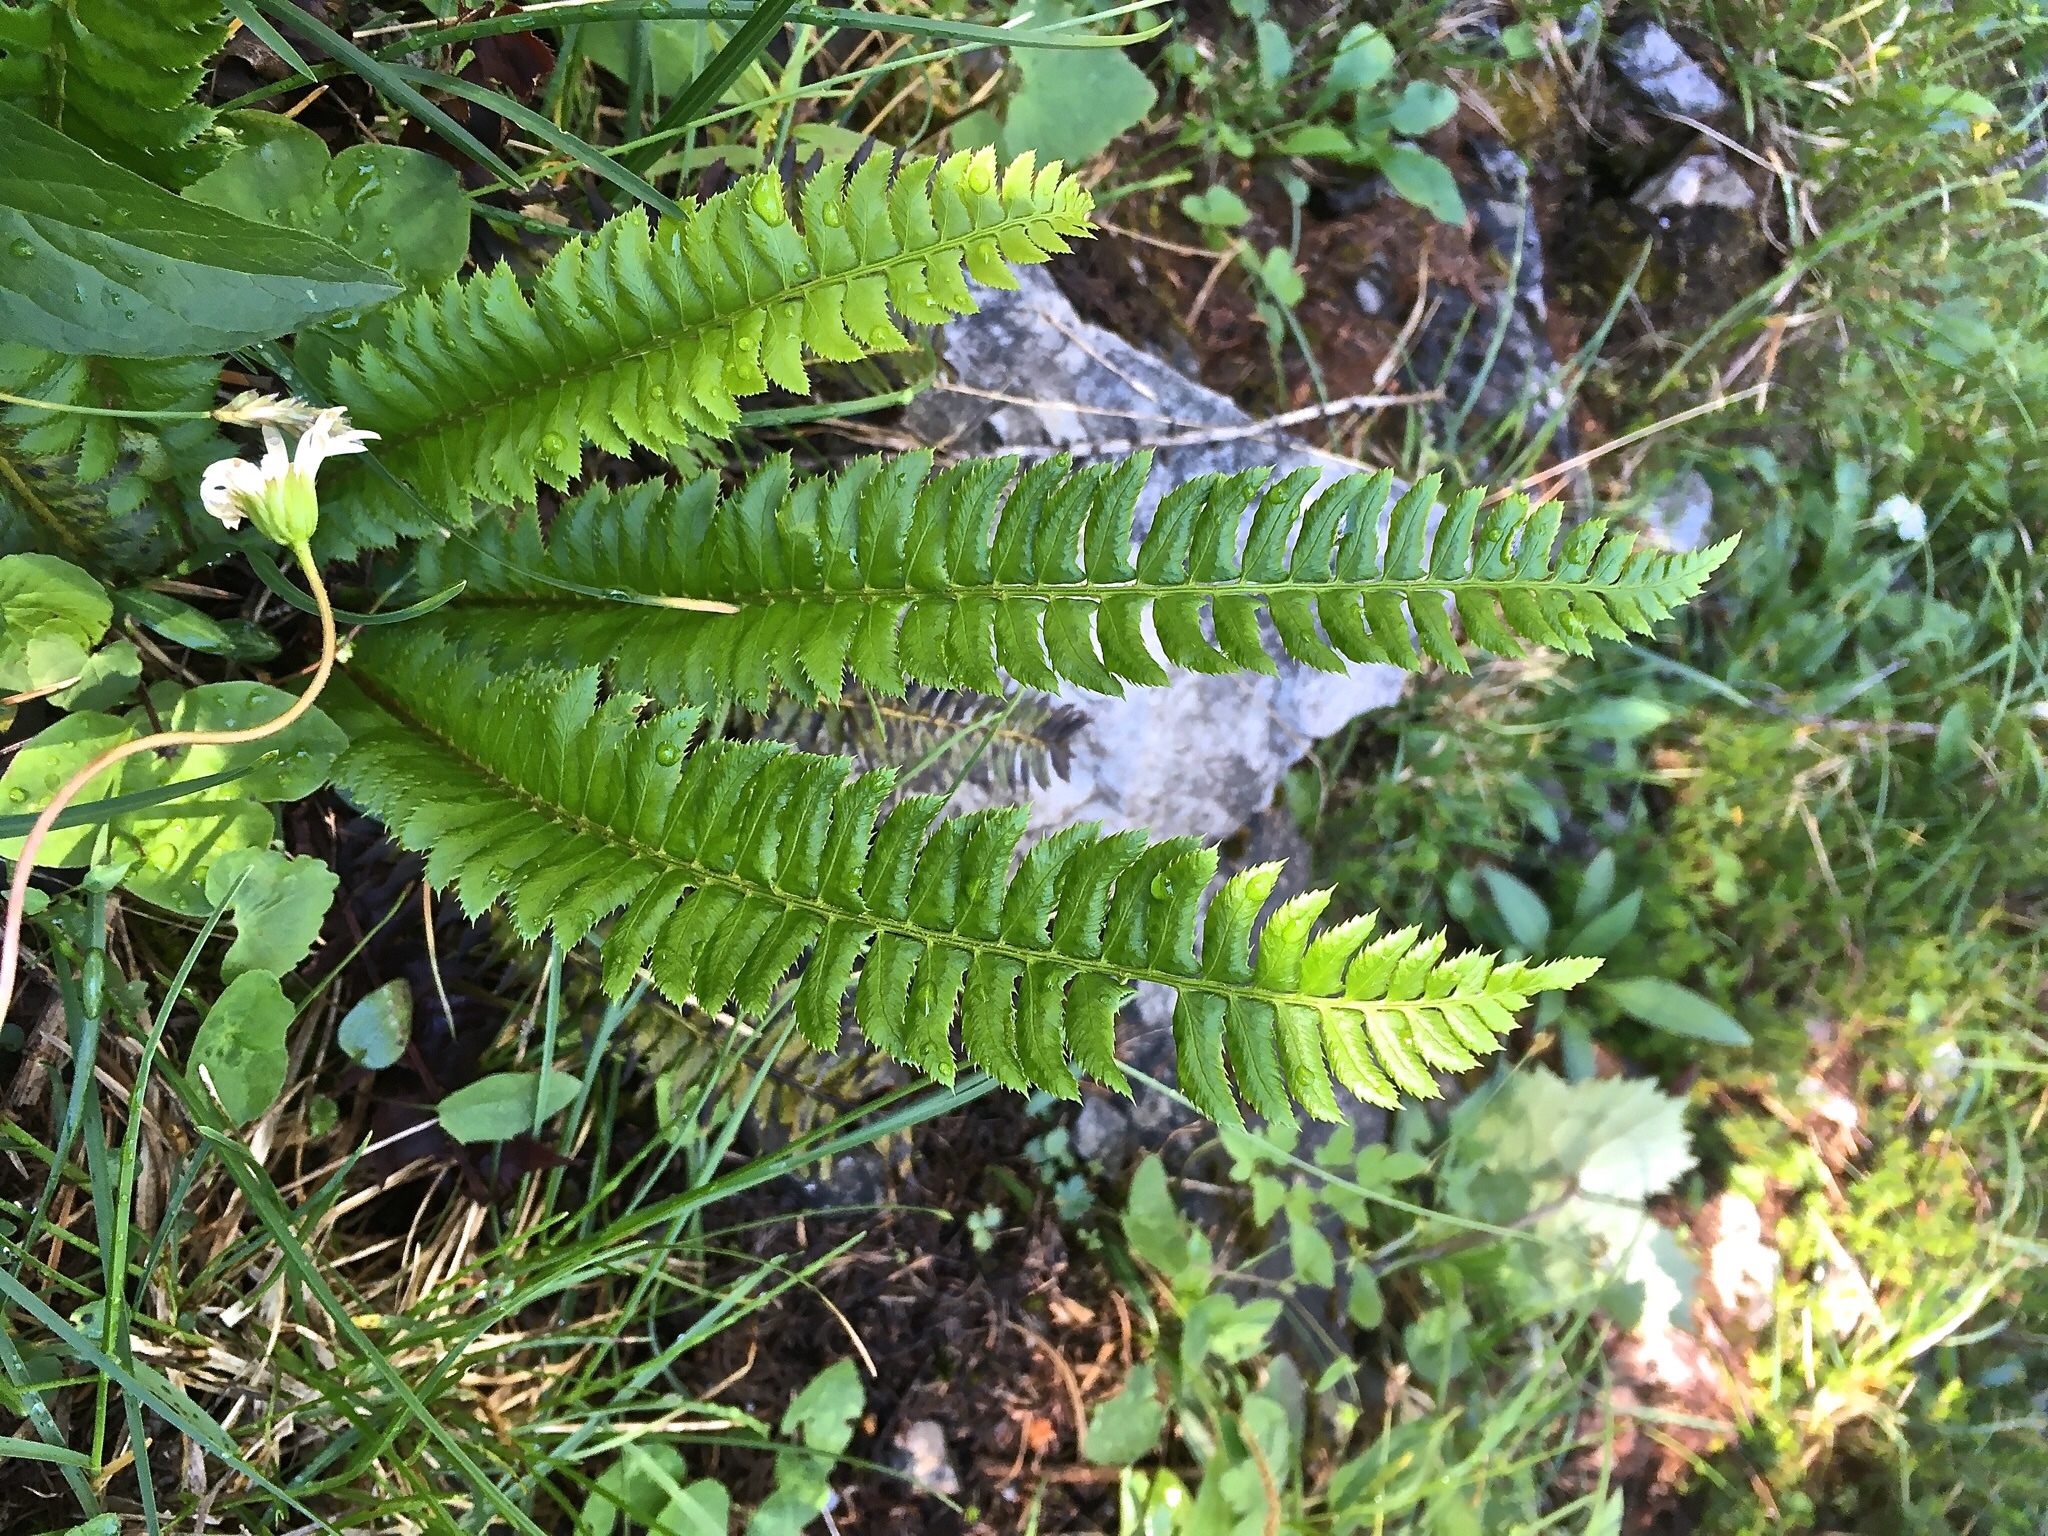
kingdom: Plantae
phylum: Tracheophyta
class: Polypodiopsida
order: Polypodiales
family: Dryopteridaceae
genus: Polystichum
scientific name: Polystichum lonchitis
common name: Holly fern
